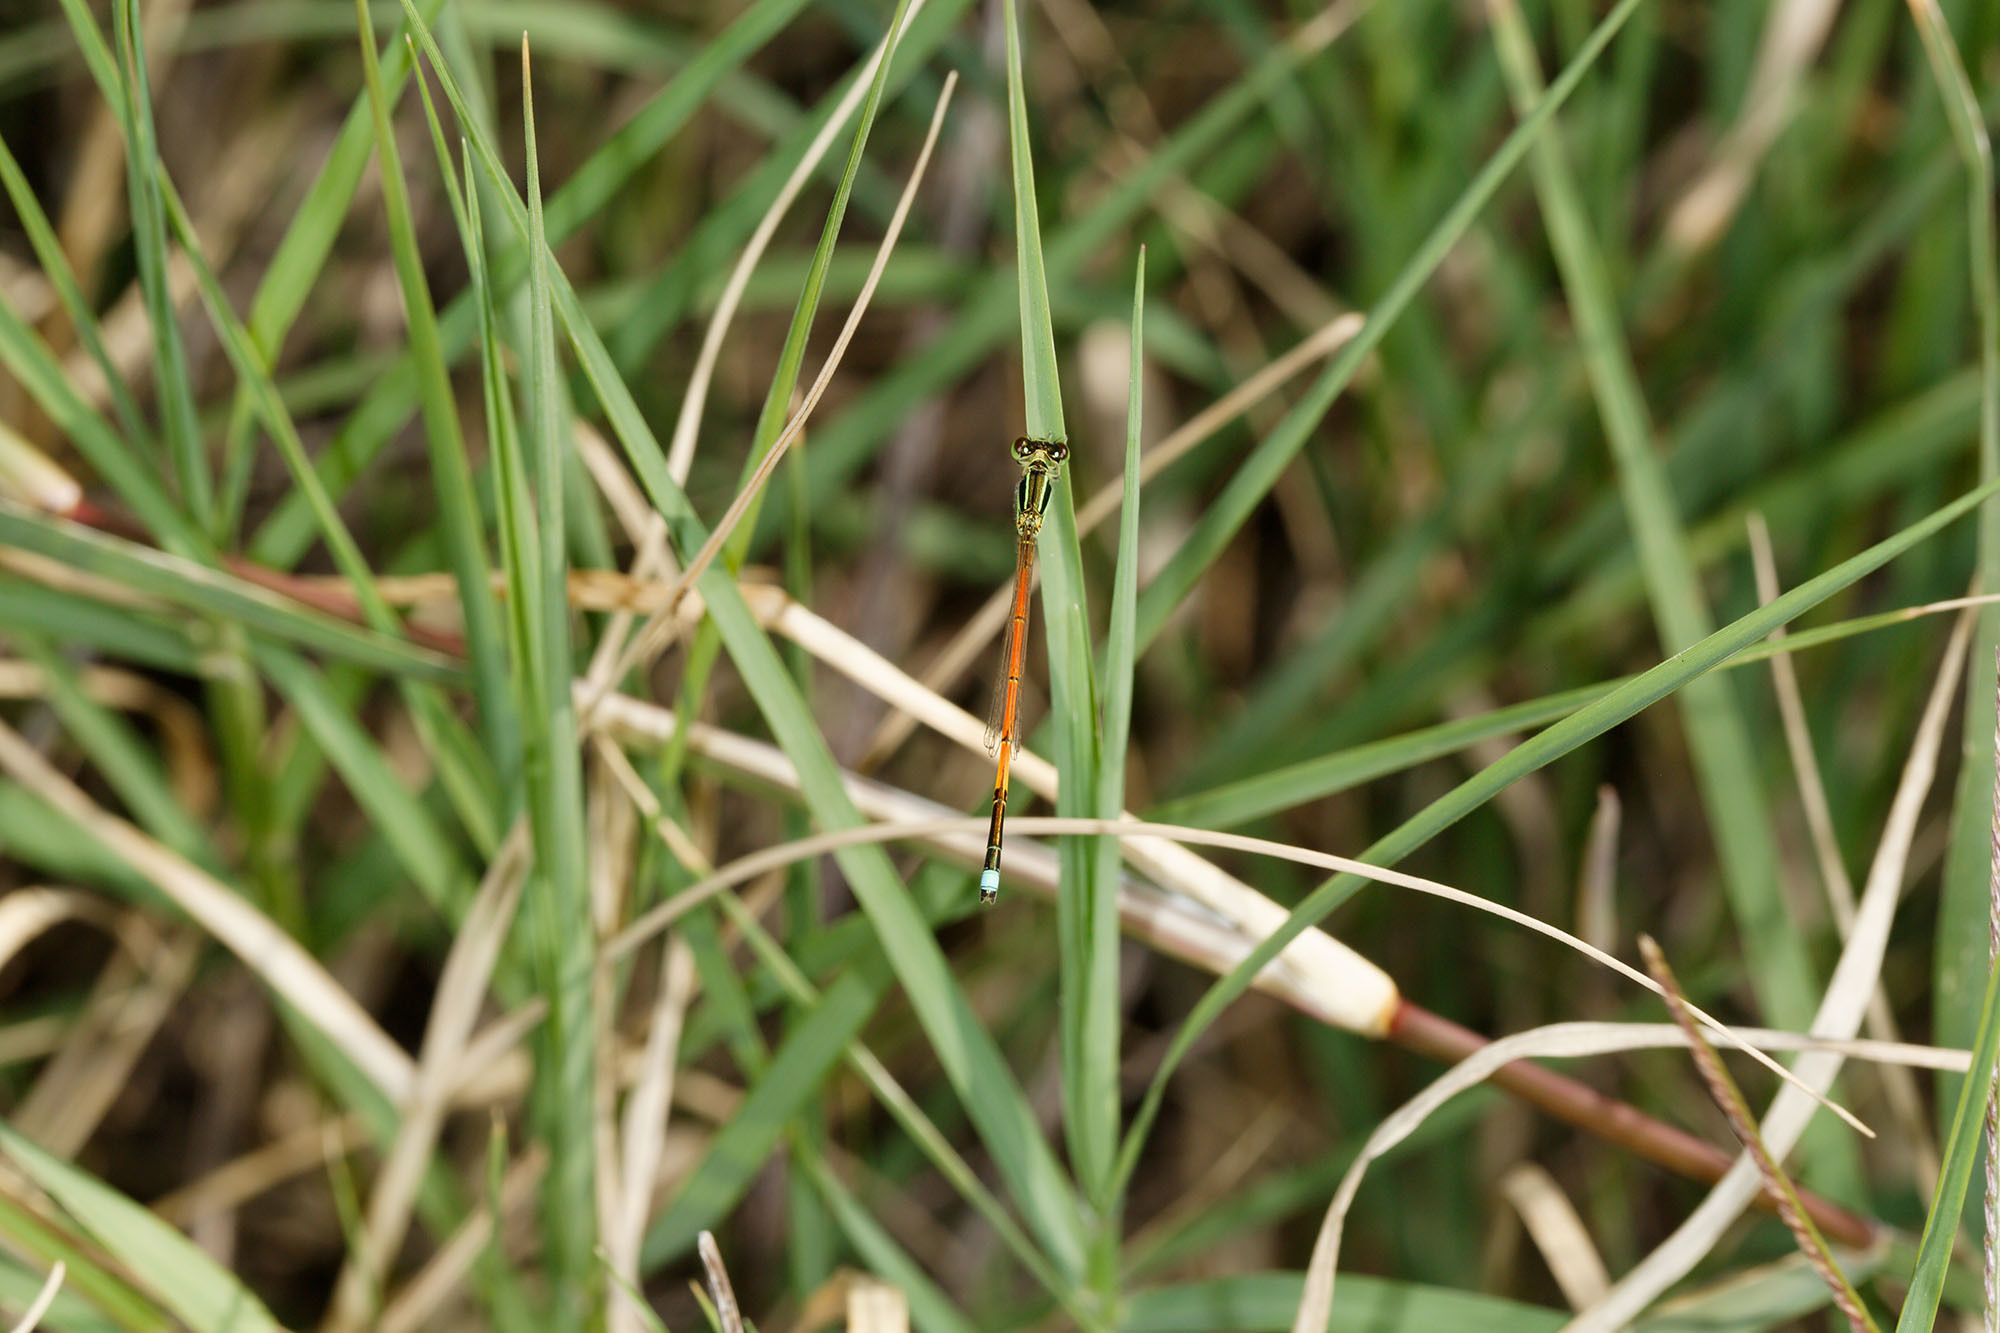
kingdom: Animalia
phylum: Arthropoda
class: Insecta
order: Odonata
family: Coenagrionidae
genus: Ischnura
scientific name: Ischnura aurora
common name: Gossamer damselfly
